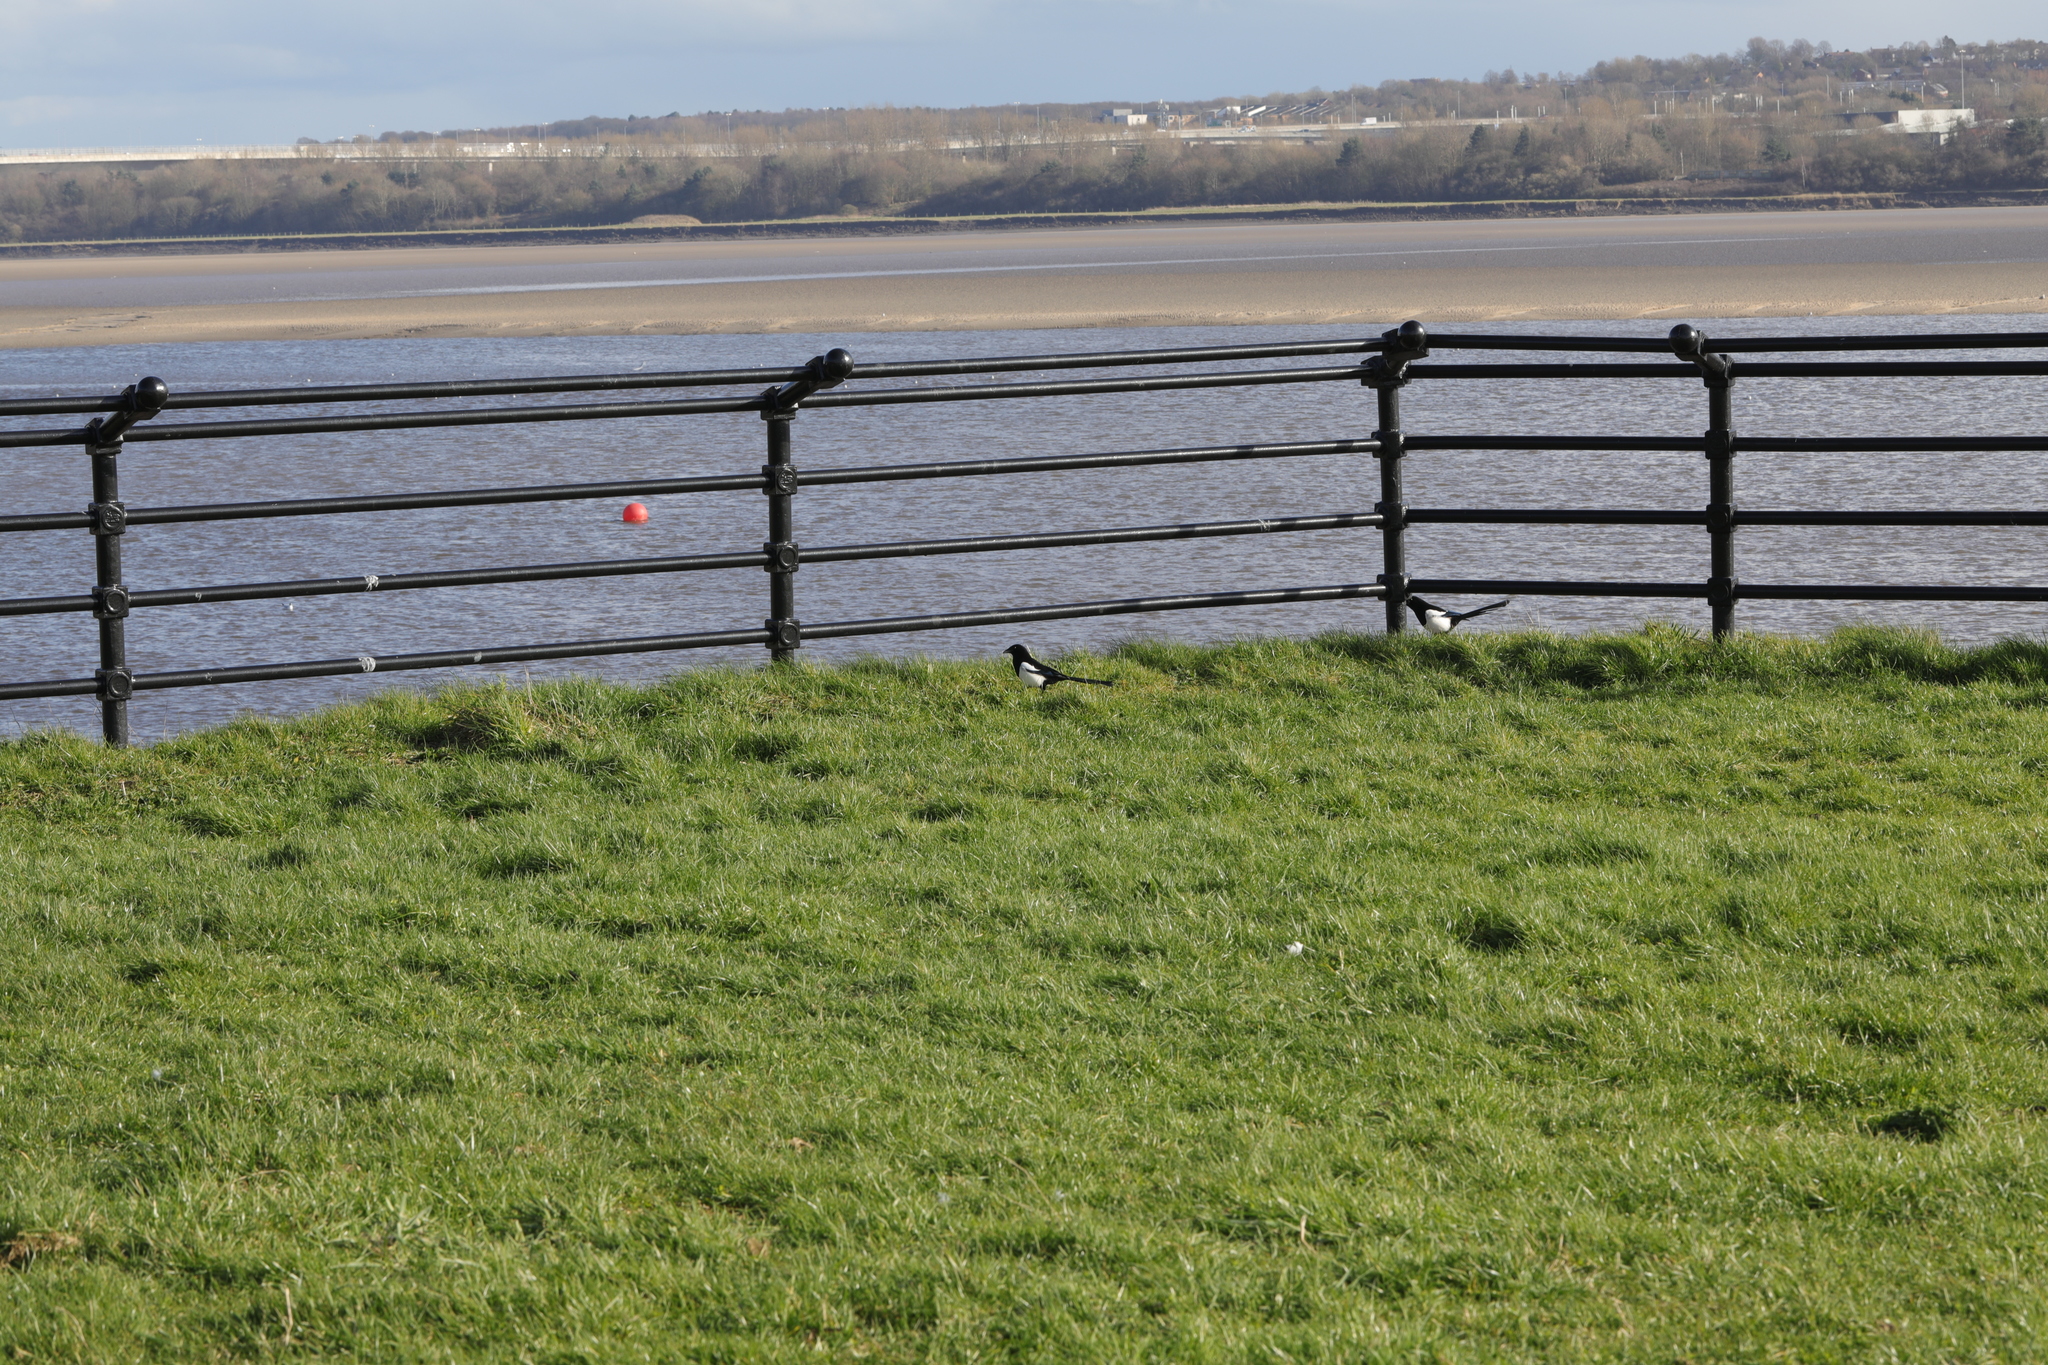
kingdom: Animalia
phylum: Chordata
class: Aves
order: Passeriformes
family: Corvidae
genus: Pica
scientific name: Pica pica
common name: Eurasian magpie
